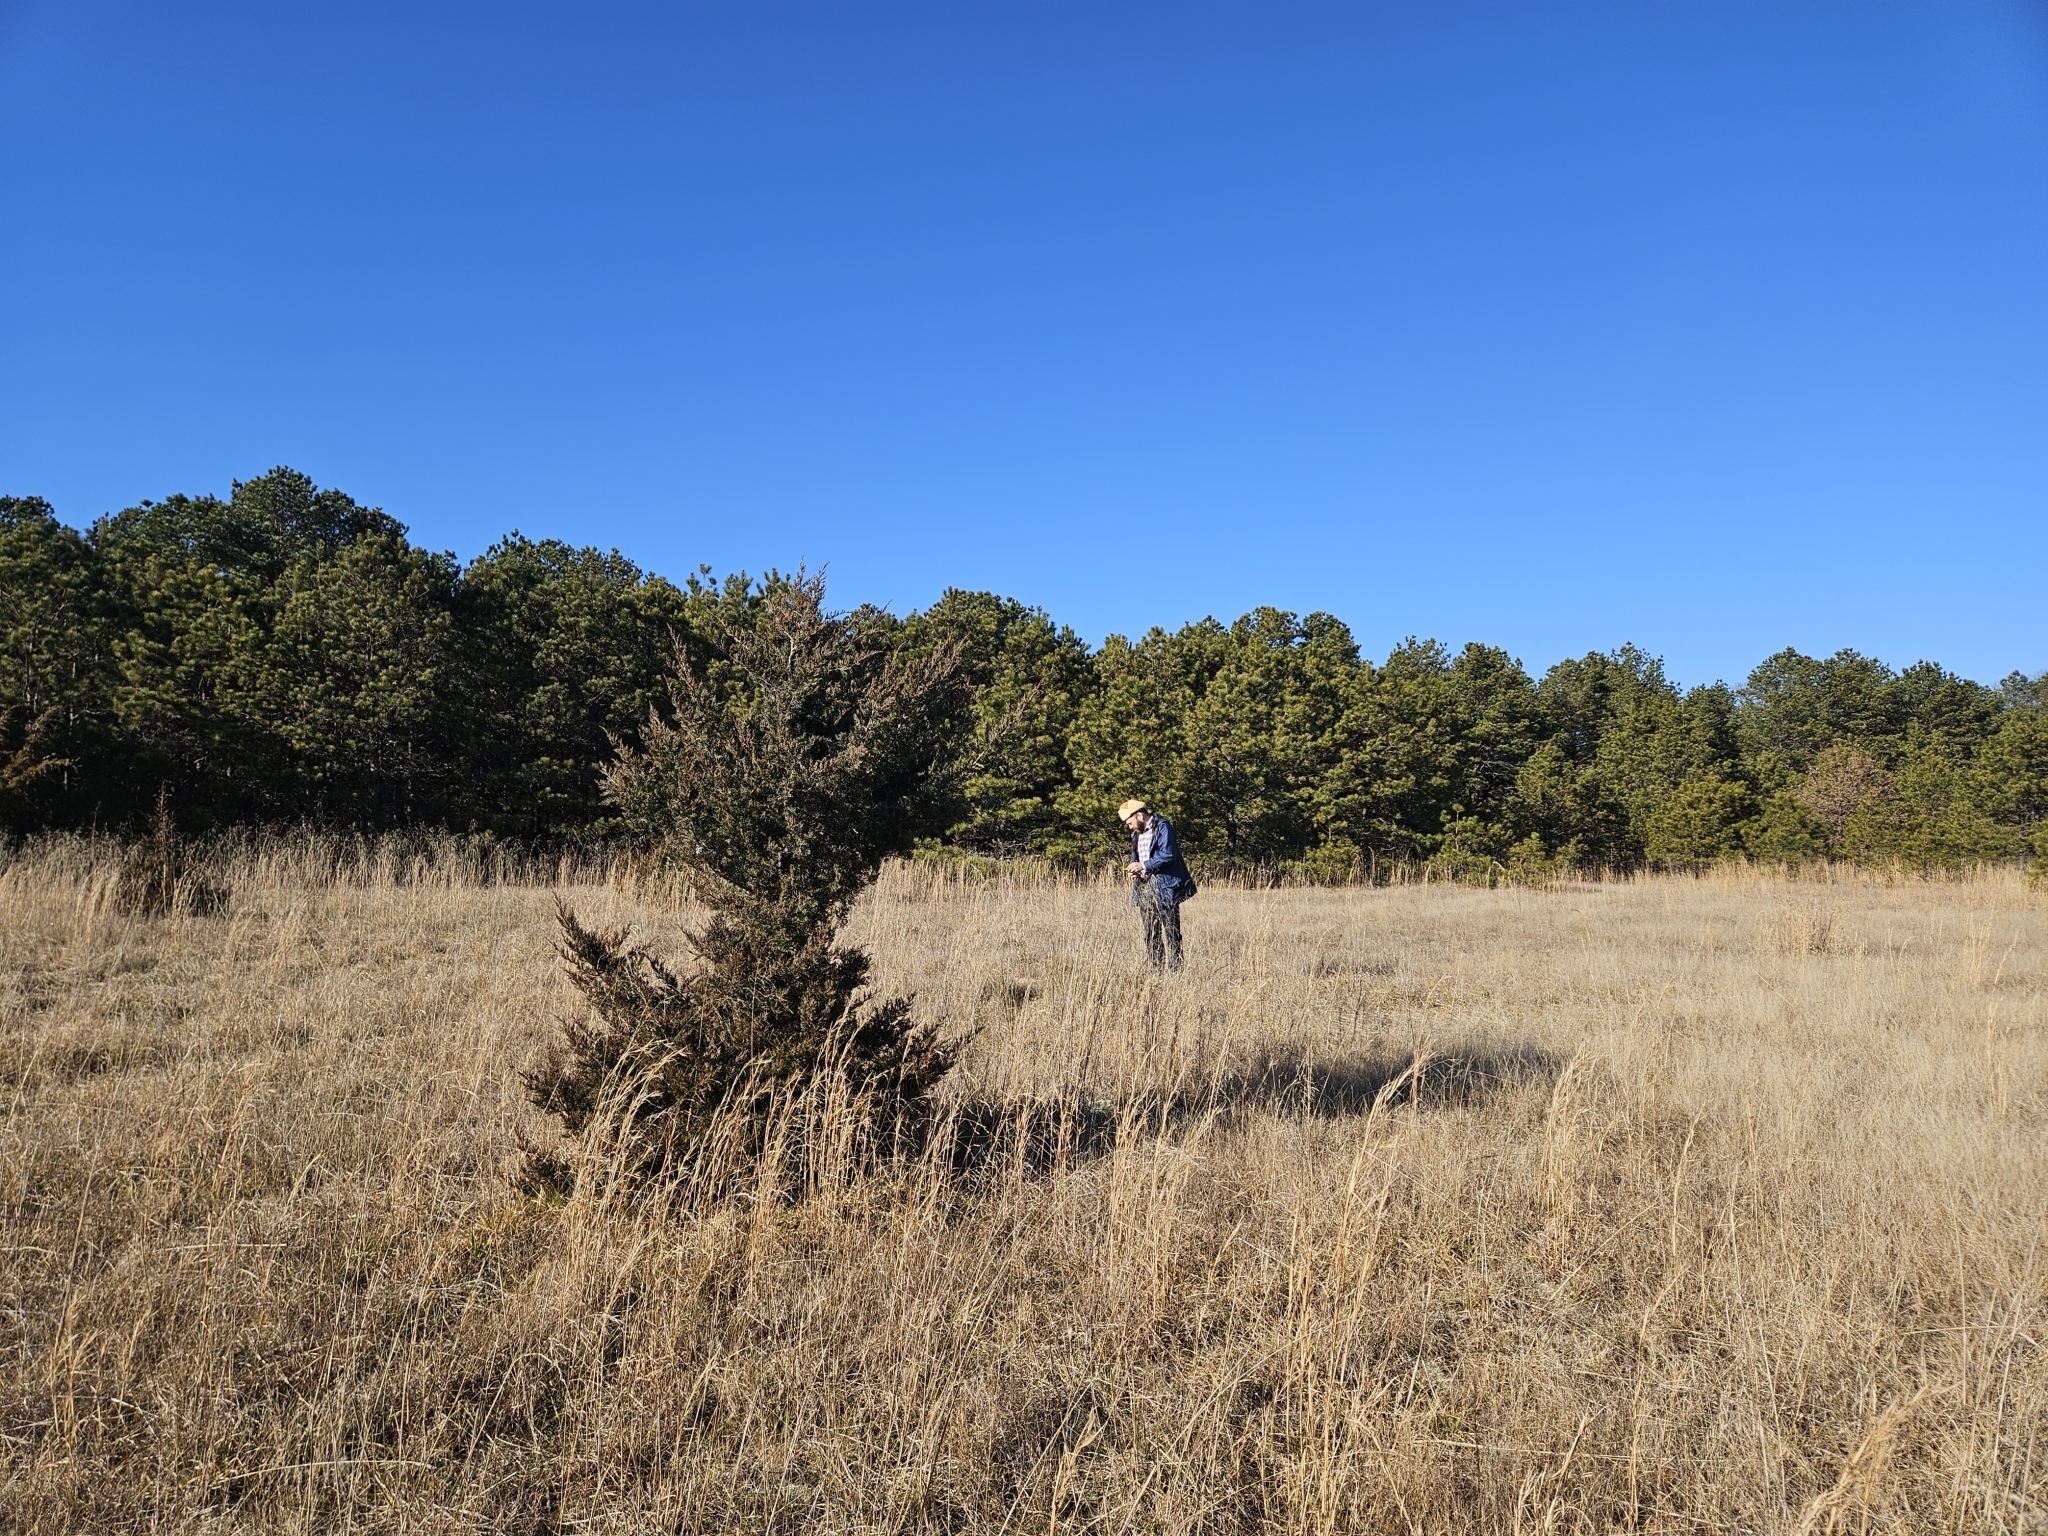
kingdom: Plantae
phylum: Tracheophyta
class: Pinopsida
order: Pinales
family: Cupressaceae
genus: Juniperus
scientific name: Juniperus virginiana
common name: Red juniper
